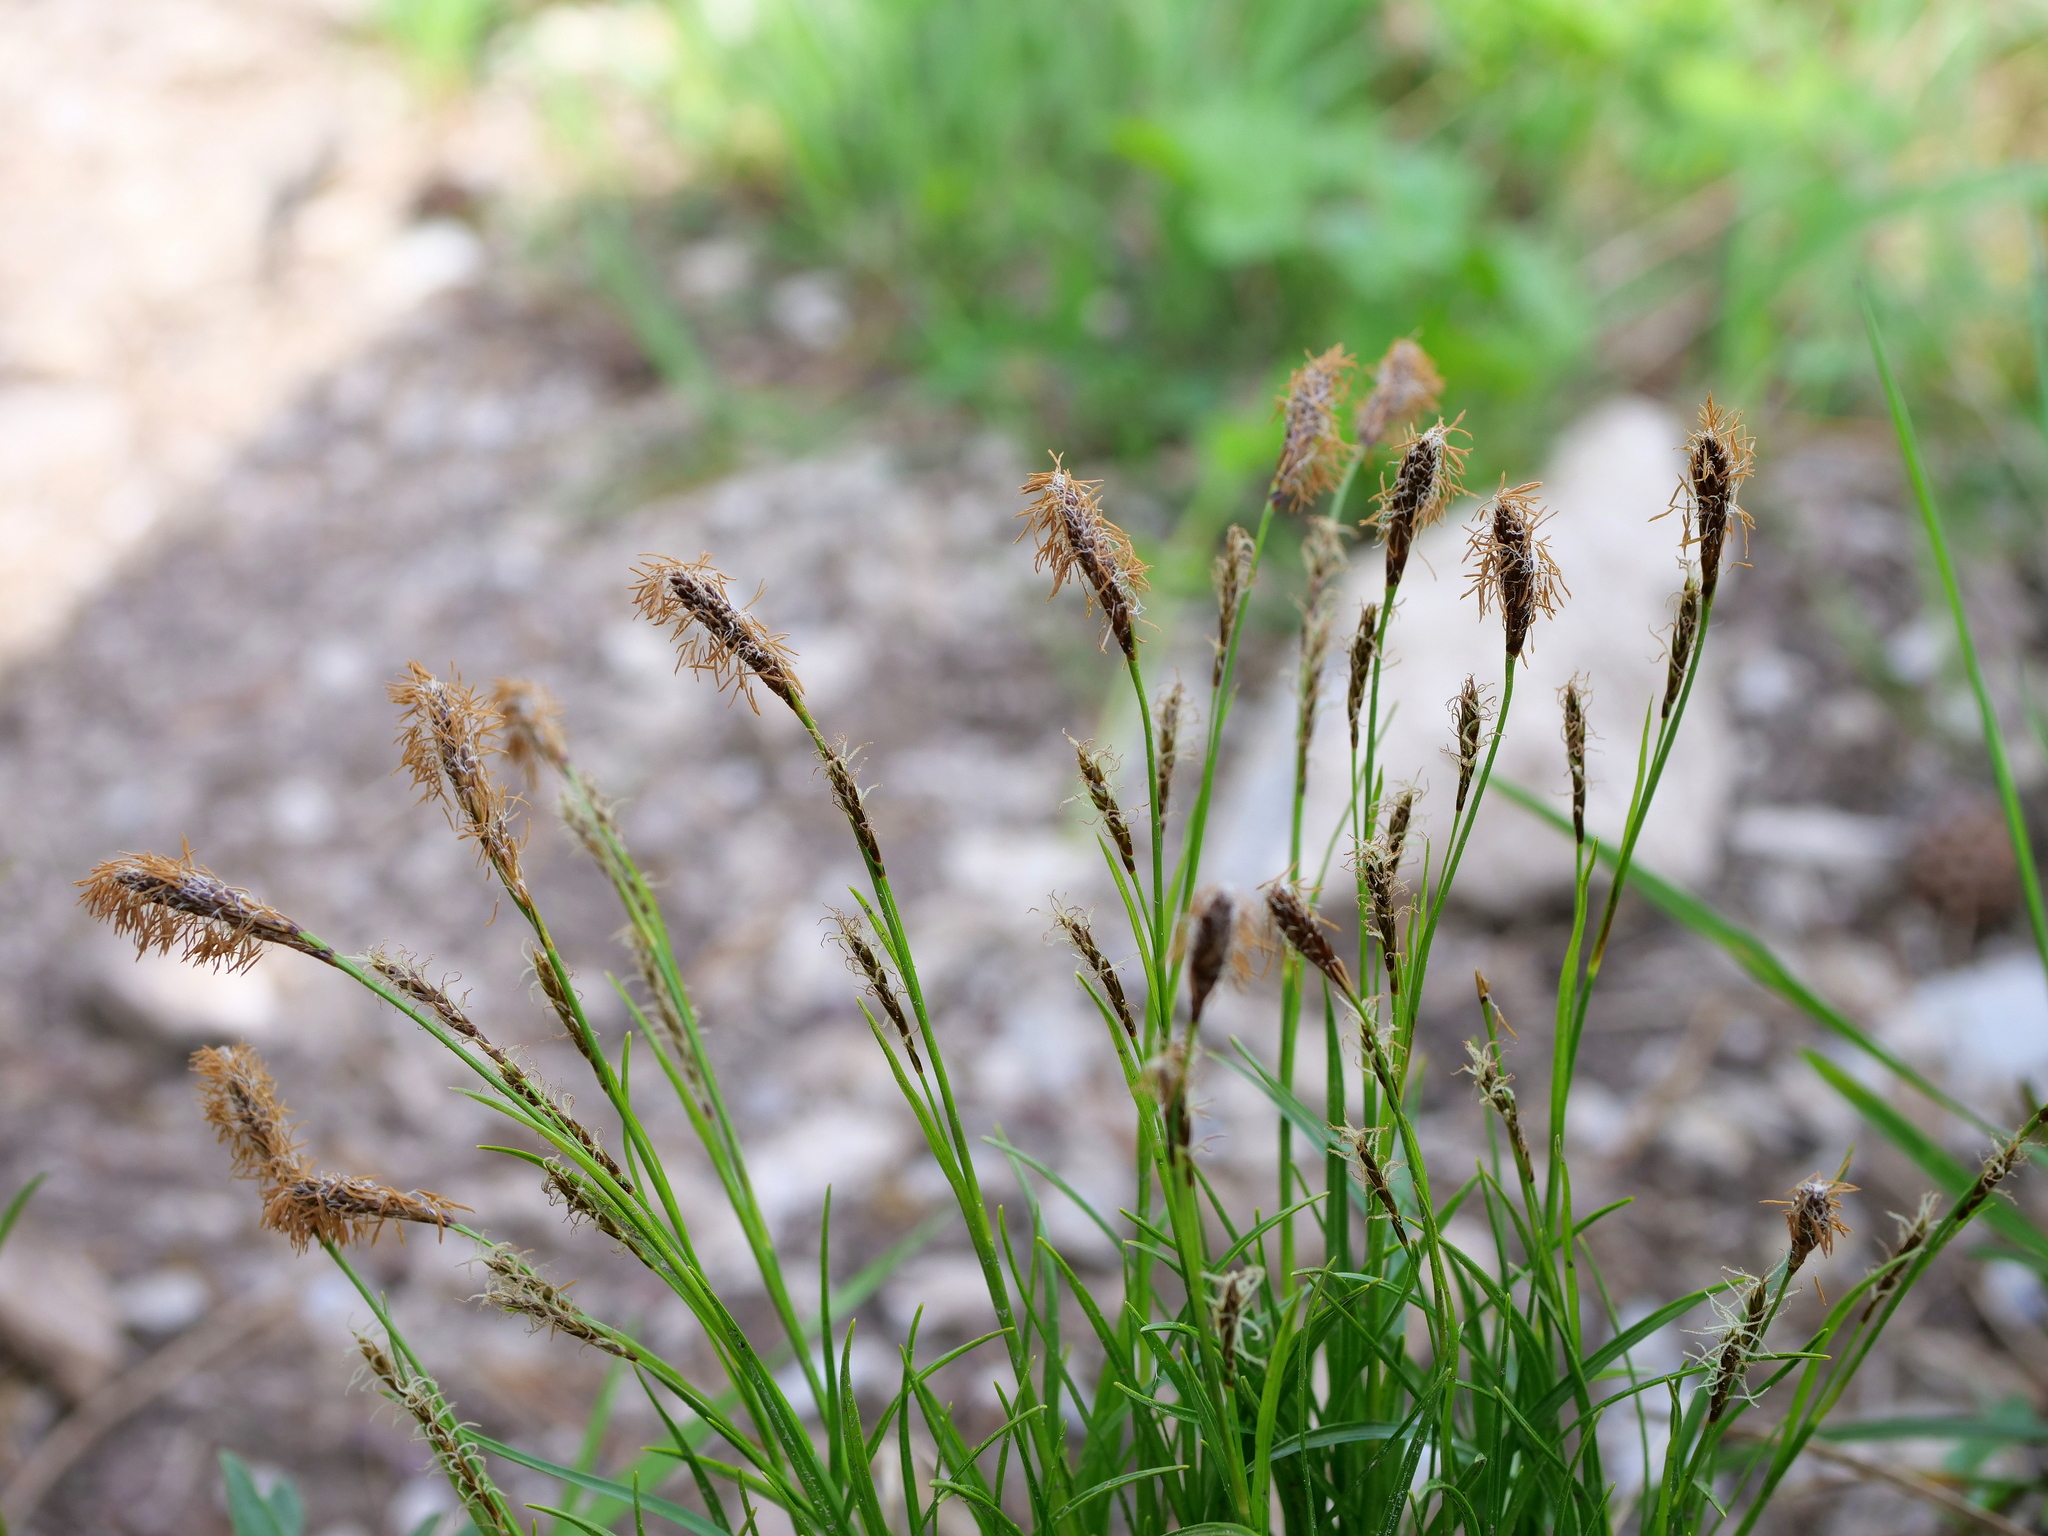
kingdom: Plantae
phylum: Tracheophyta
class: Liliopsida
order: Poales
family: Cyperaceae
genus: Carex
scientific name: Carex sempervirens
